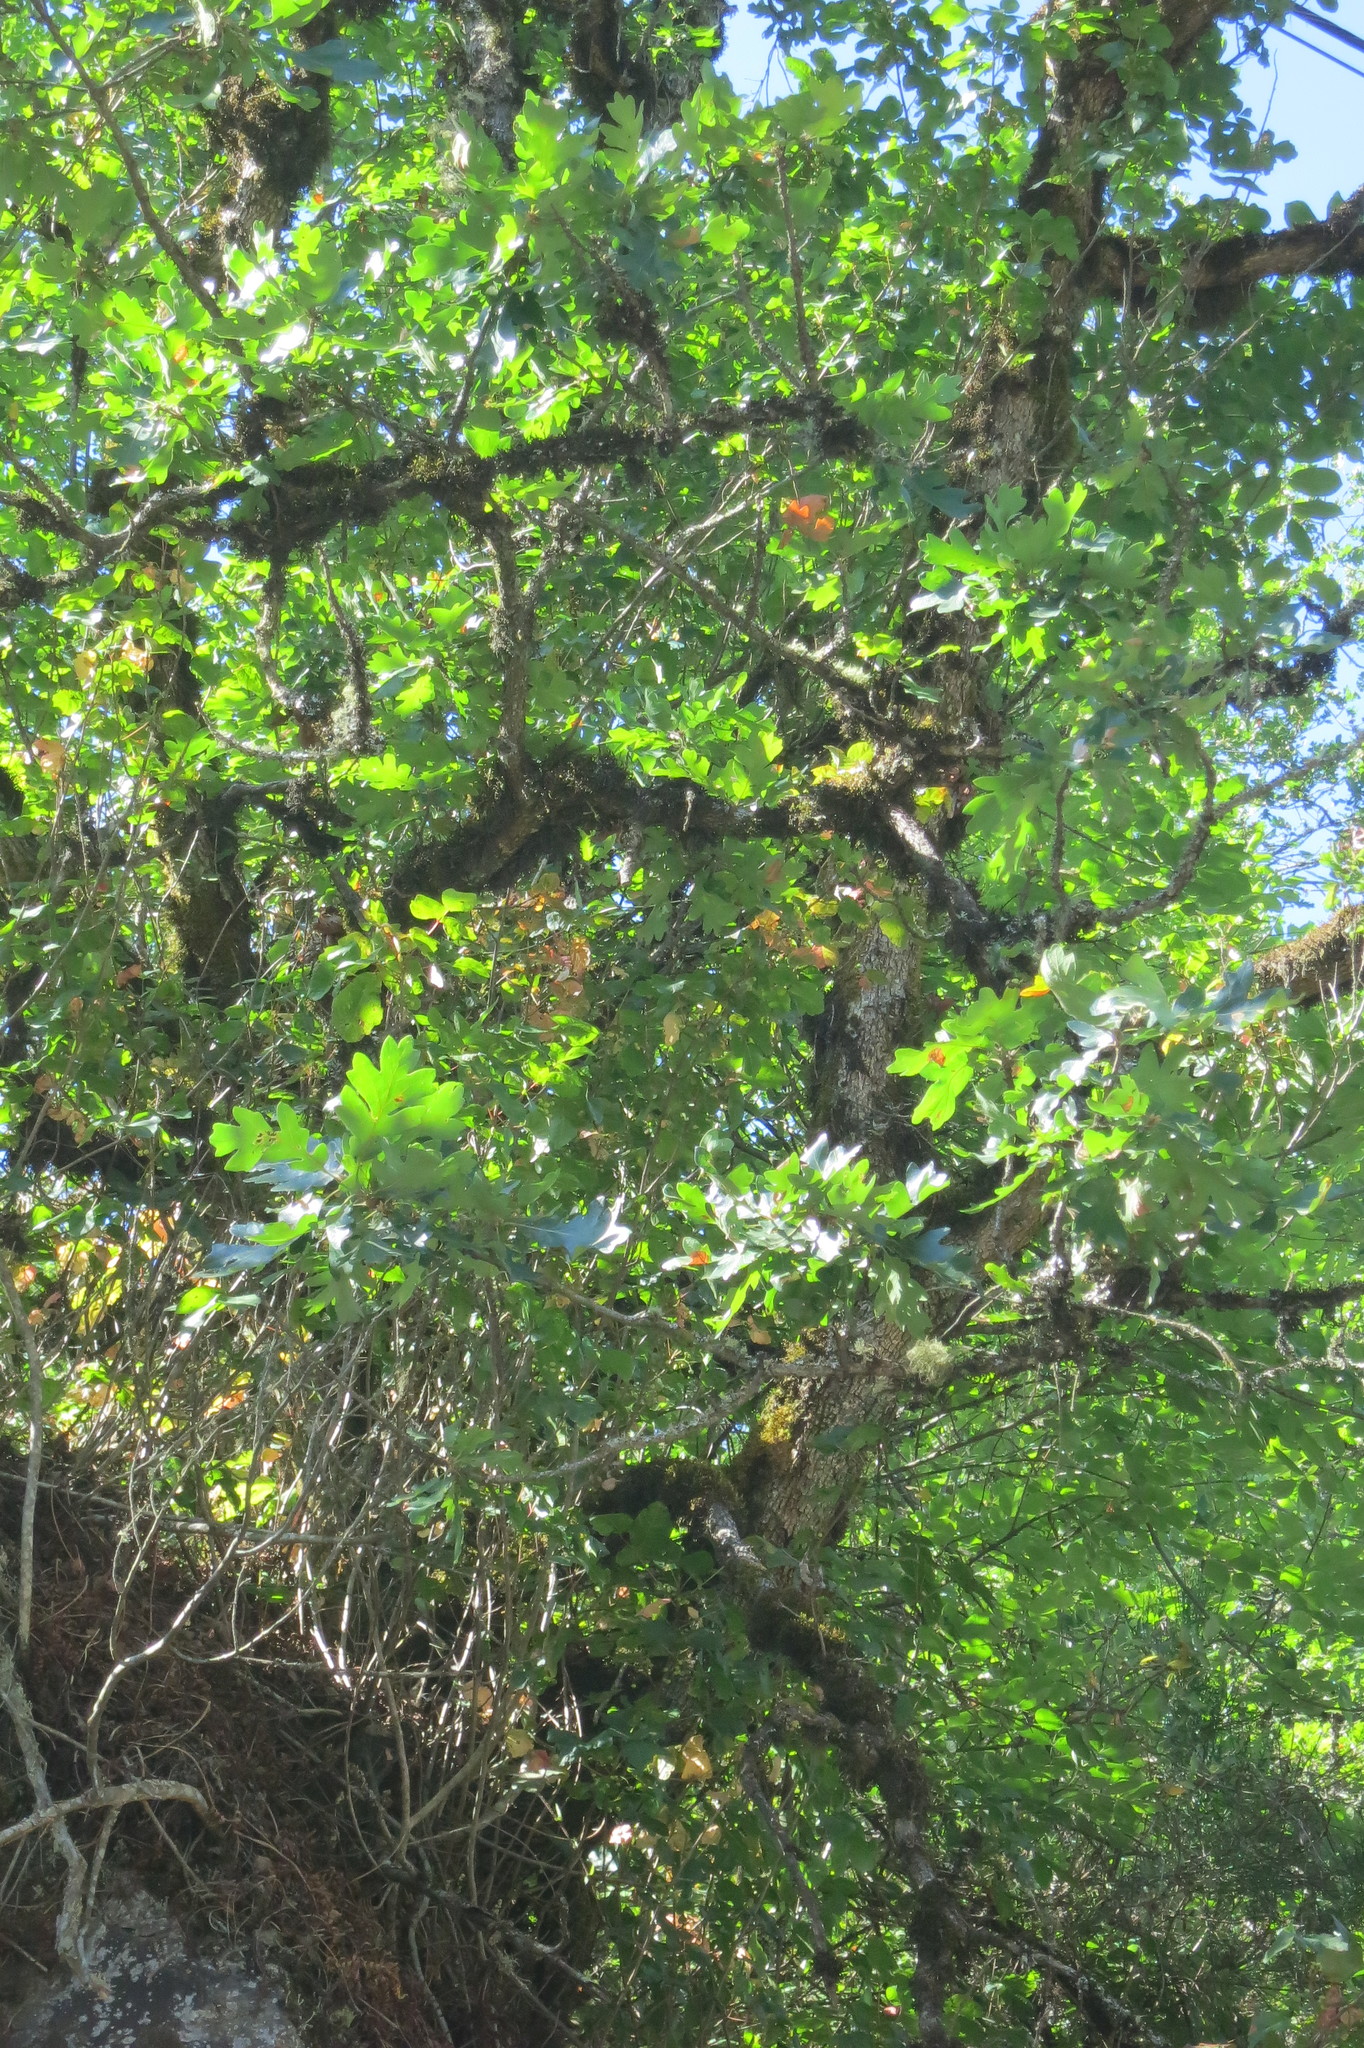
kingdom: Plantae
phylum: Tracheophyta
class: Magnoliopsida
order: Fagales
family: Fagaceae
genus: Quercus
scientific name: Quercus garryana
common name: Garry oak
